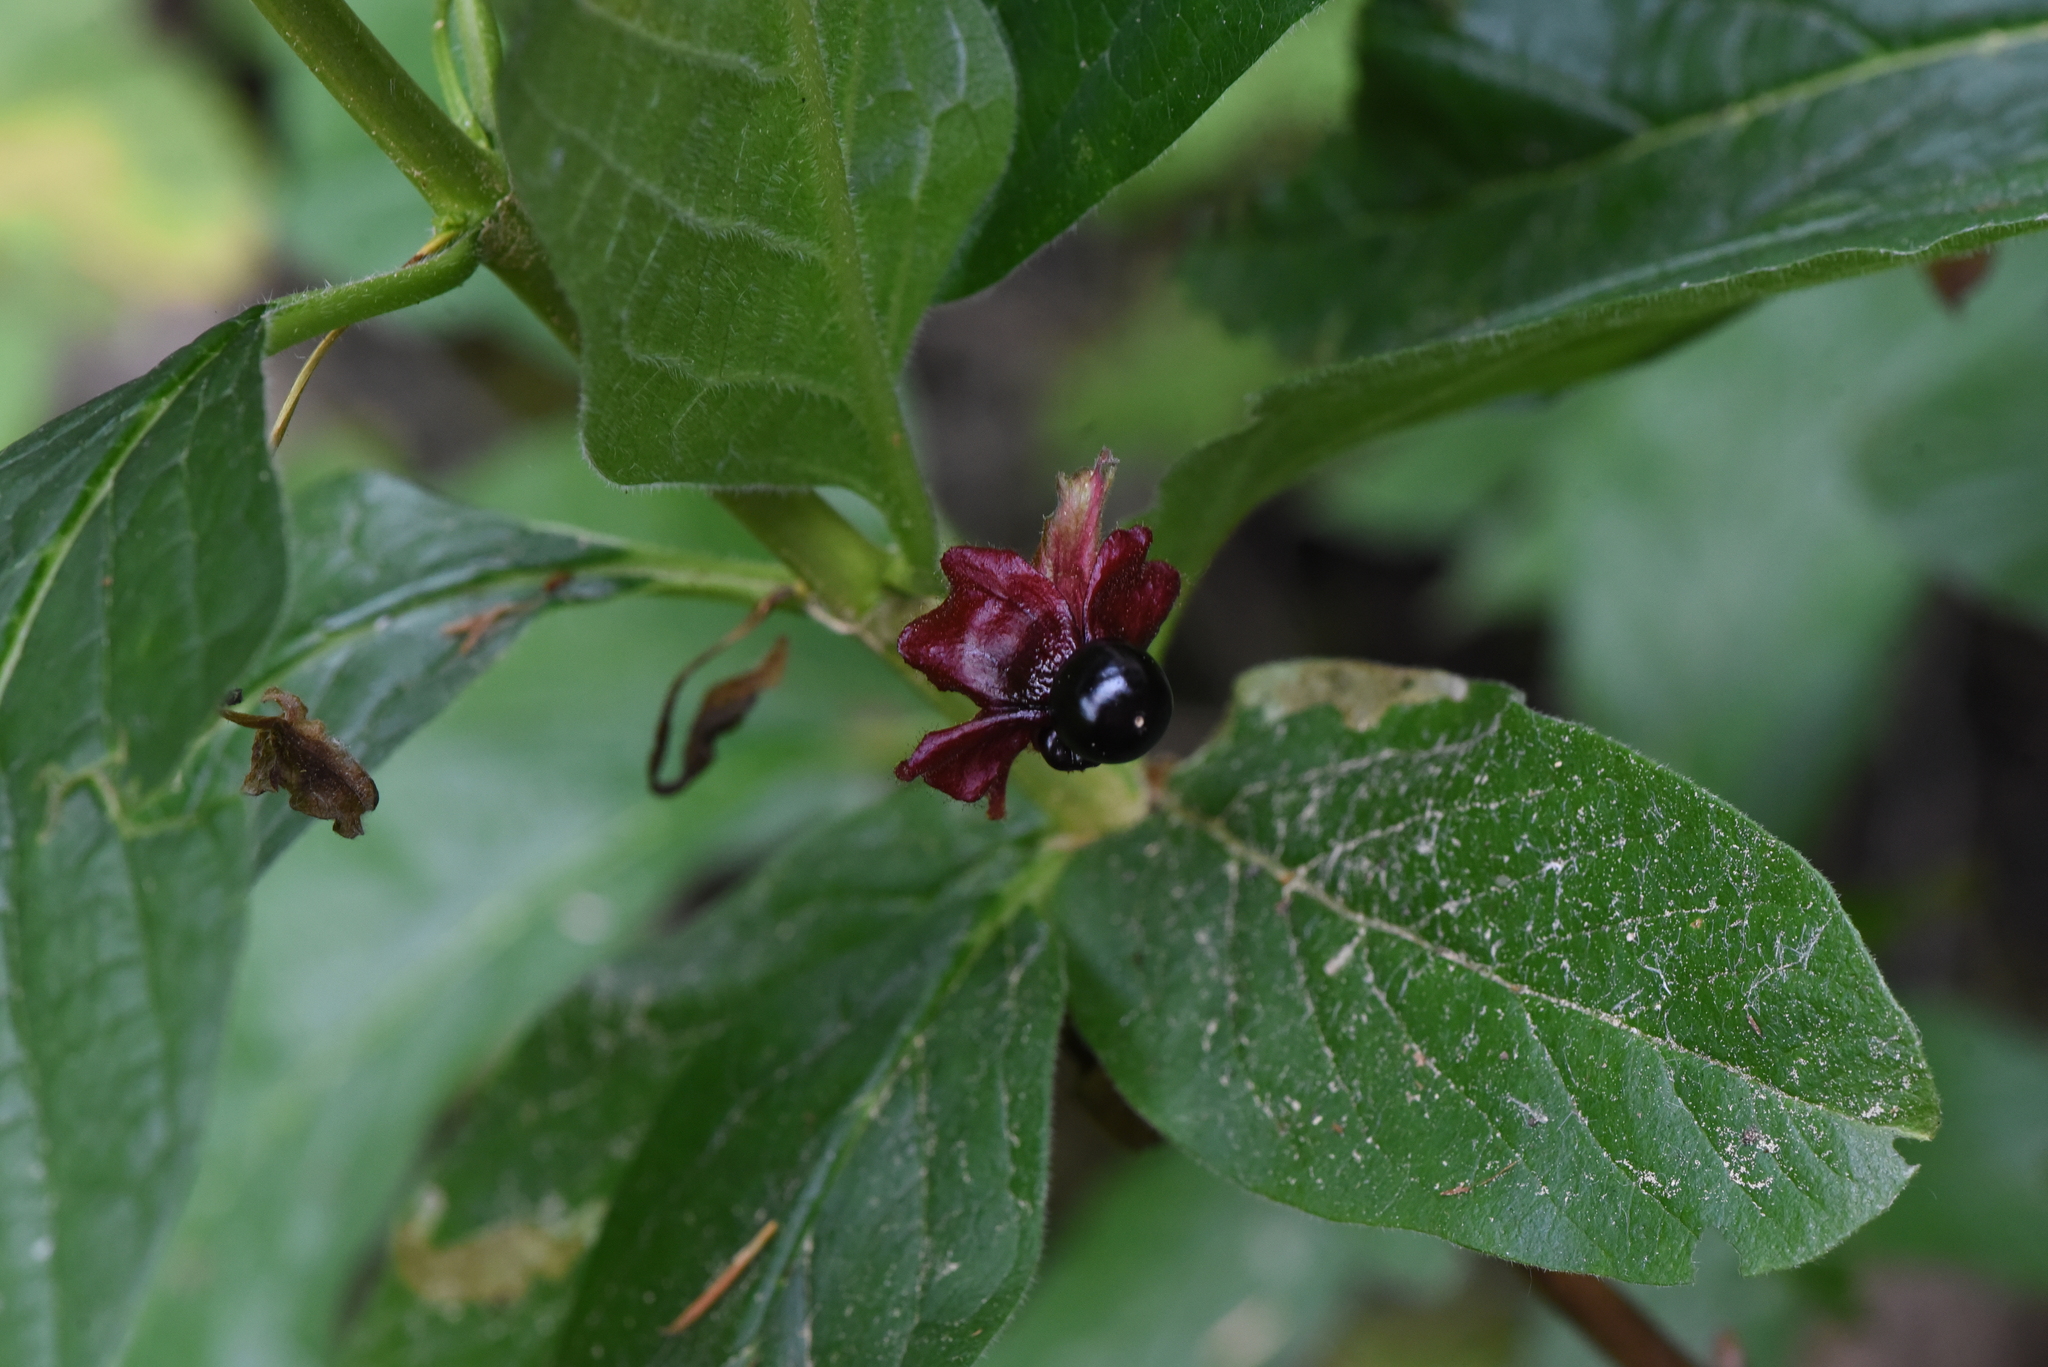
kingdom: Plantae
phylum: Tracheophyta
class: Magnoliopsida
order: Dipsacales
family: Caprifoliaceae
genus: Lonicera
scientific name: Lonicera involucrata
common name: Californian honeysuckle
